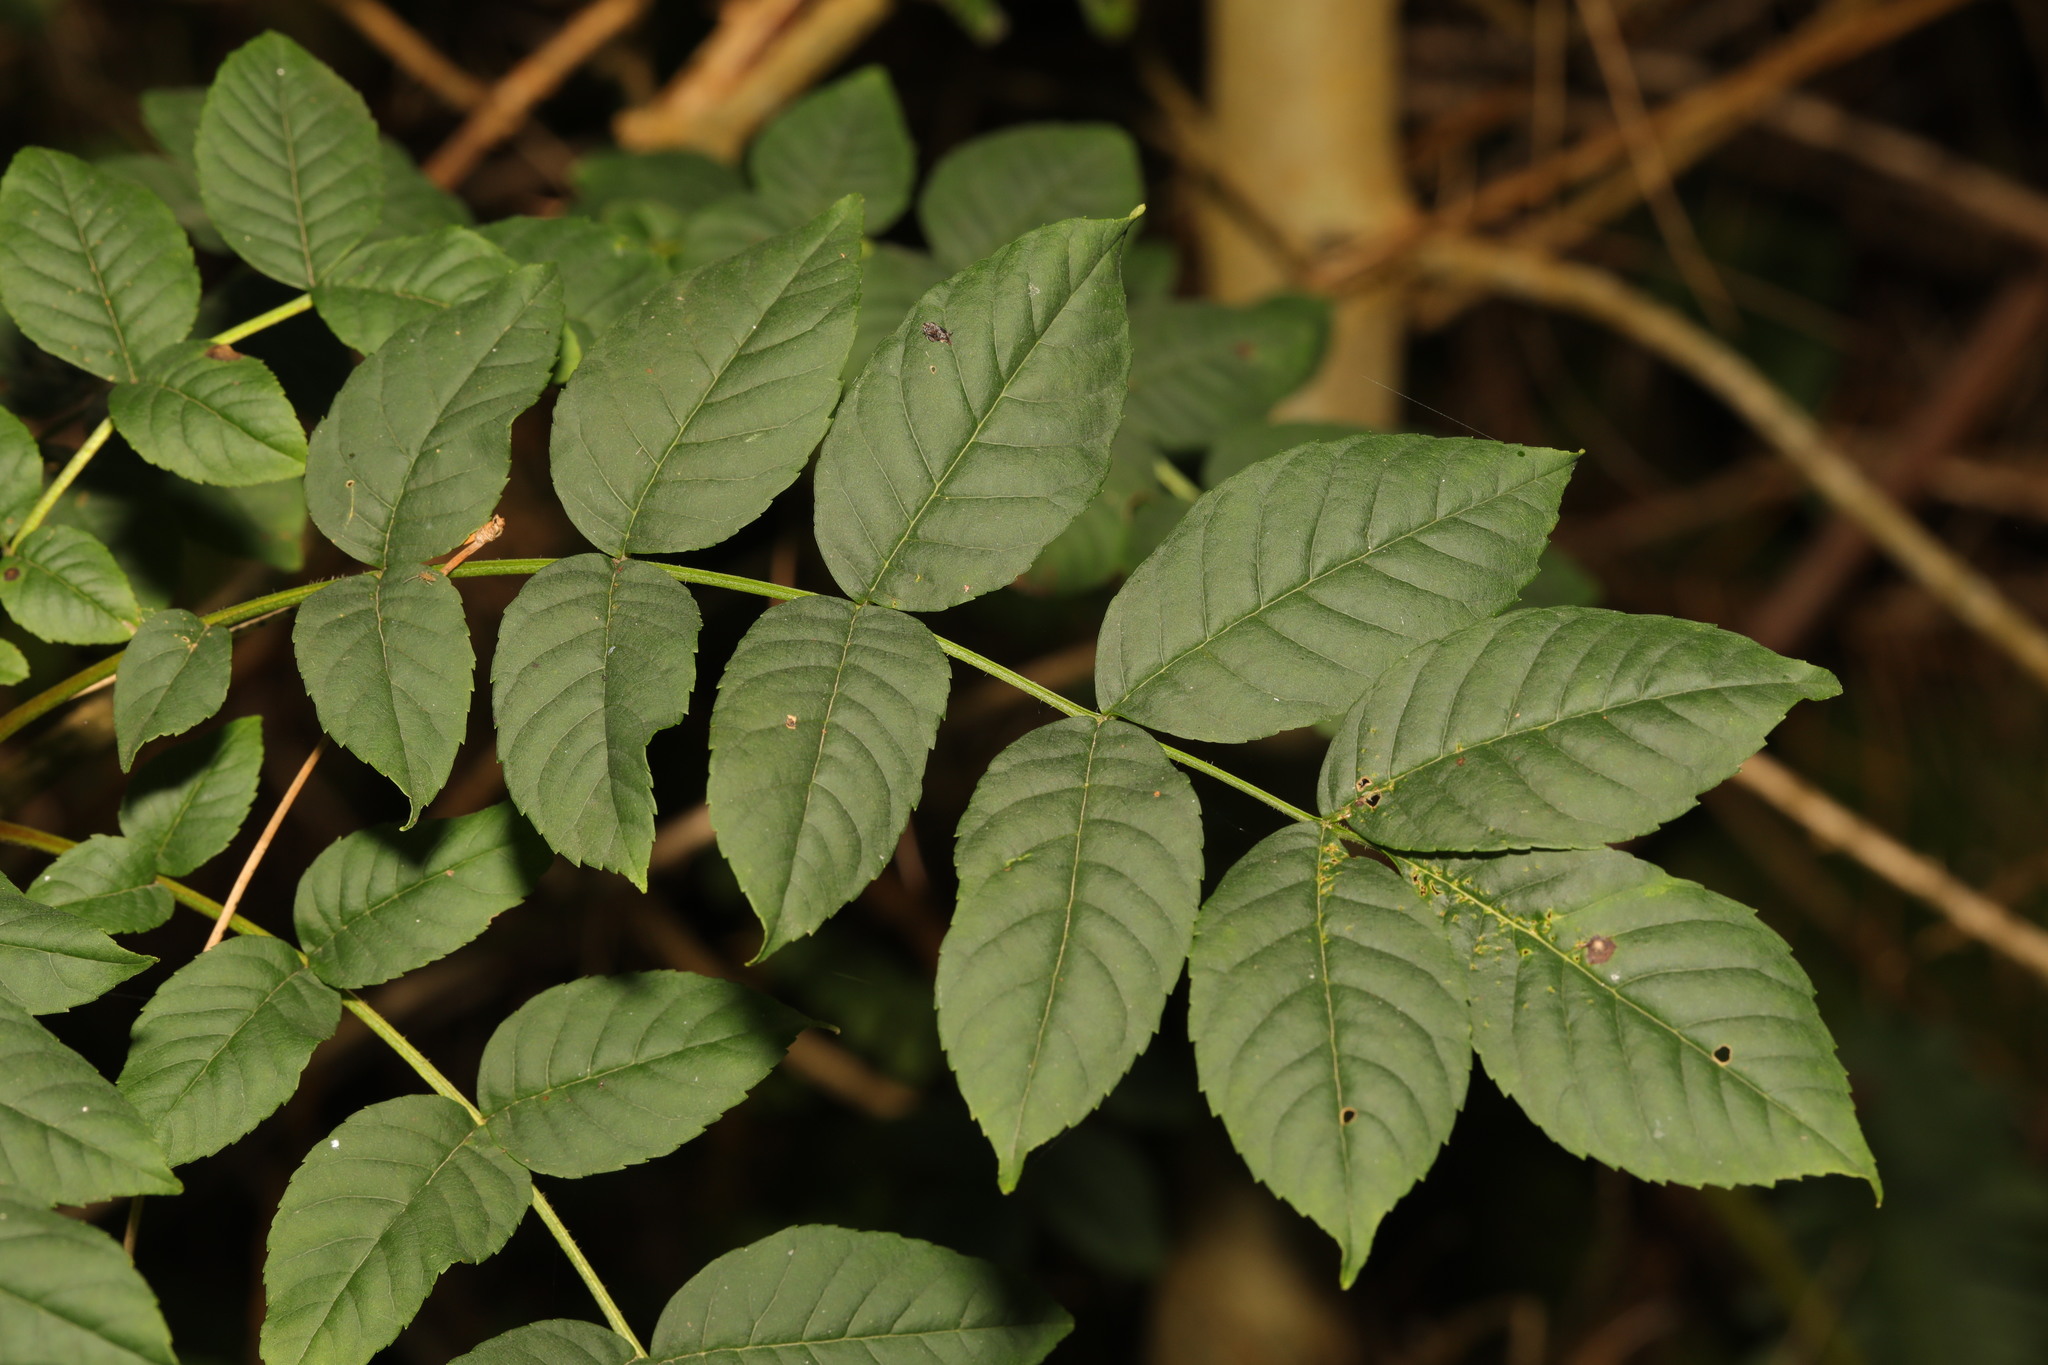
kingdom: Plantae
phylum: Tracheophyta
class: Magnoliopsida
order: Lamiales
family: Oleaceae
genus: Fraxinus
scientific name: Fraxinus excelsior
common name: European ash
